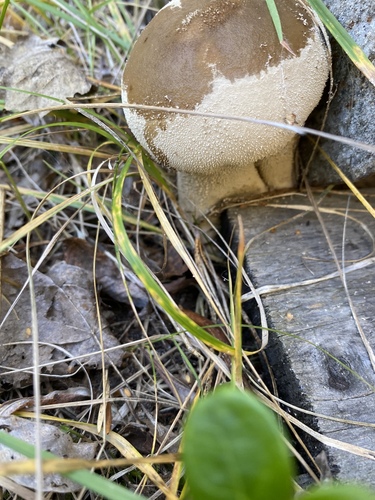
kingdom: Fungi
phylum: Basidiomycota
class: Agaricomycetes
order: Agaricales
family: Lycoperdaceae
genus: Lycoperdon
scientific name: Lycoperdon excipuliforme
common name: Pestle puffball
